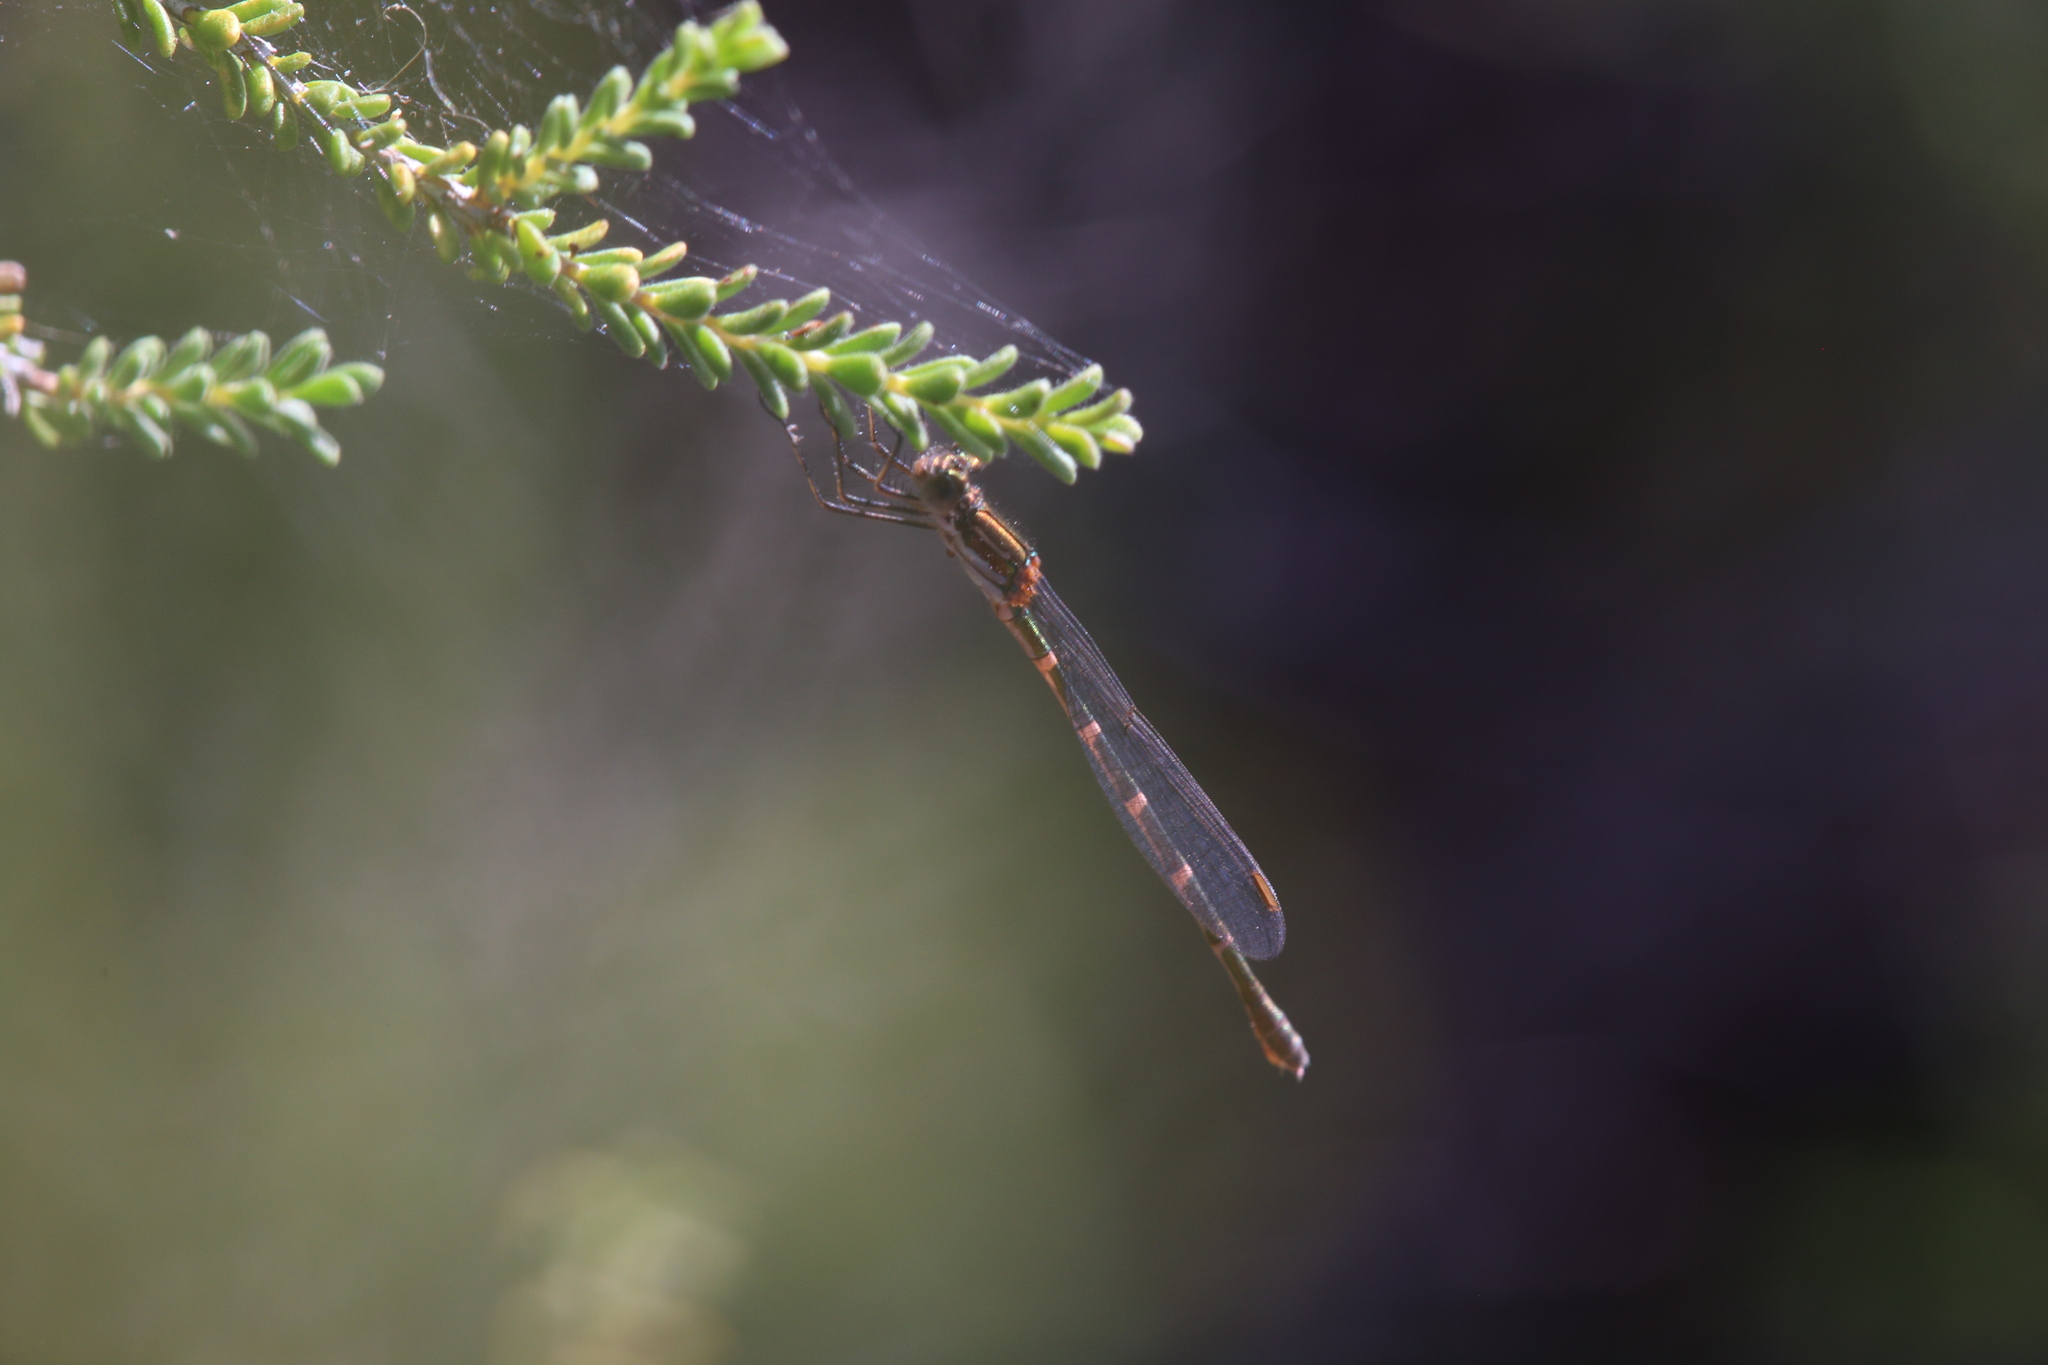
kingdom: Animalia
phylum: Arthropoda
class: Insecta
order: Odonata
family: Lestidae
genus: Austrolestes
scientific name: Austrolestes aleison
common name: Western ringtail
